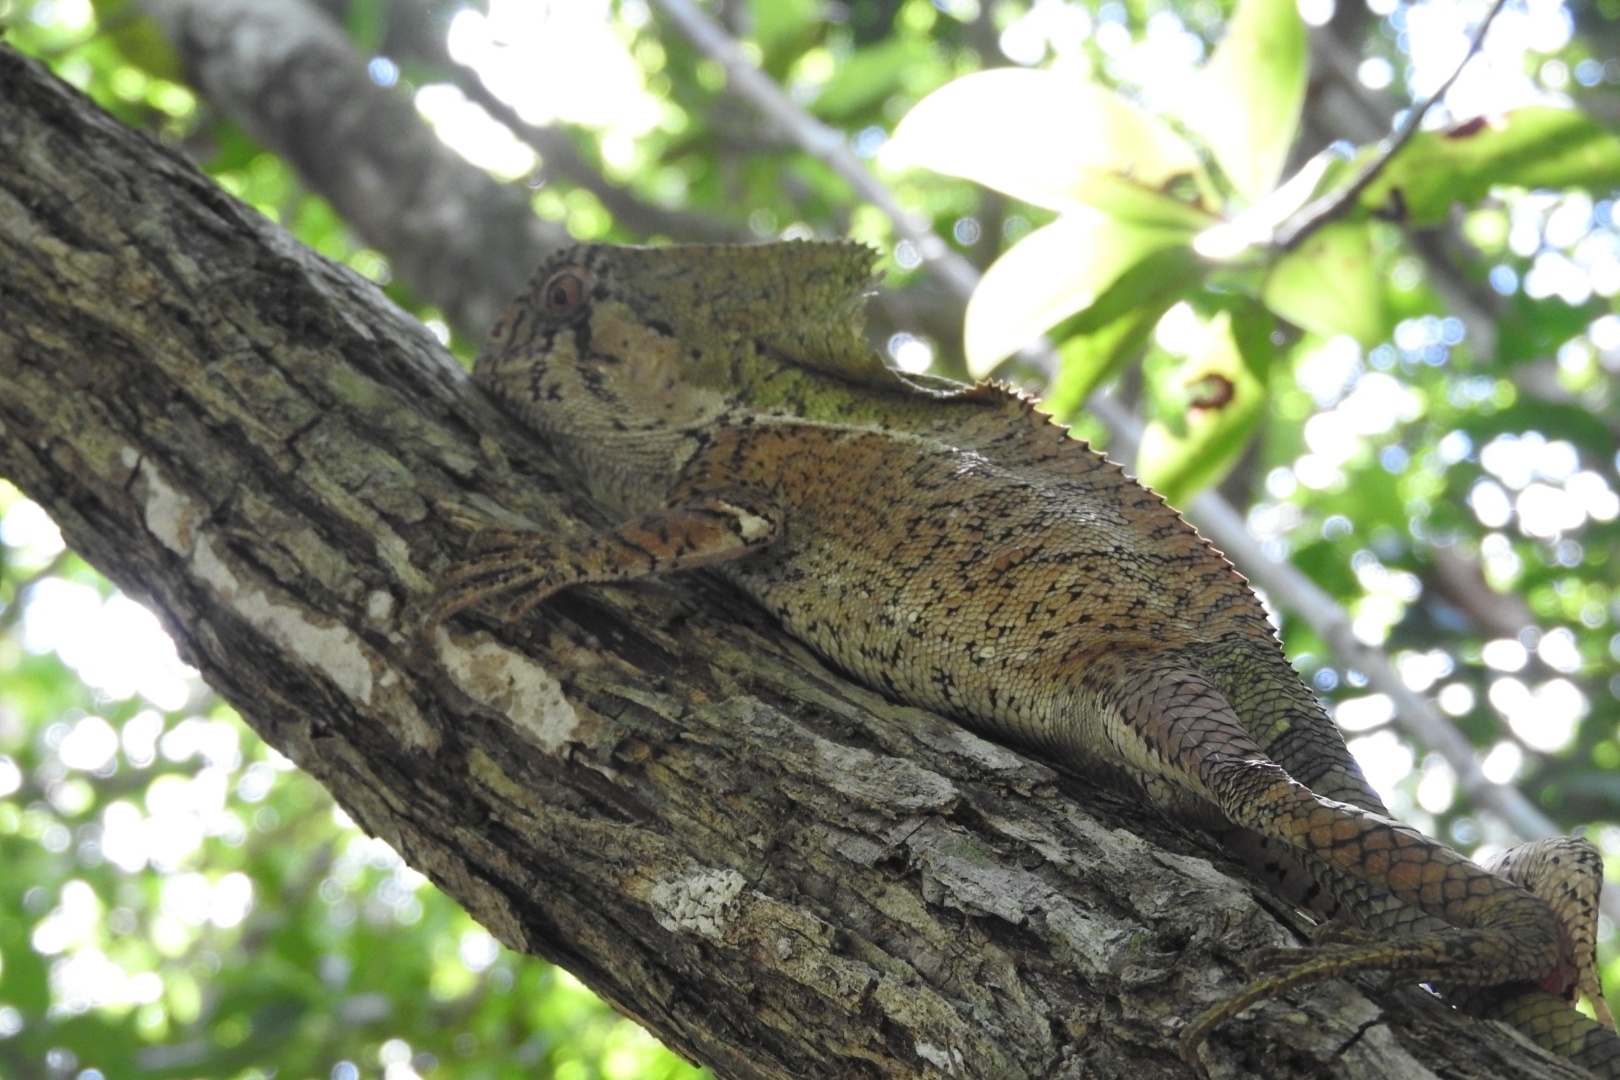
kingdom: Animalia
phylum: Chordata
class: Squamata
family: Corytophanidae
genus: Corytophanes
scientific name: Corytophanes cristatus
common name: Smooth helmeted iguana
